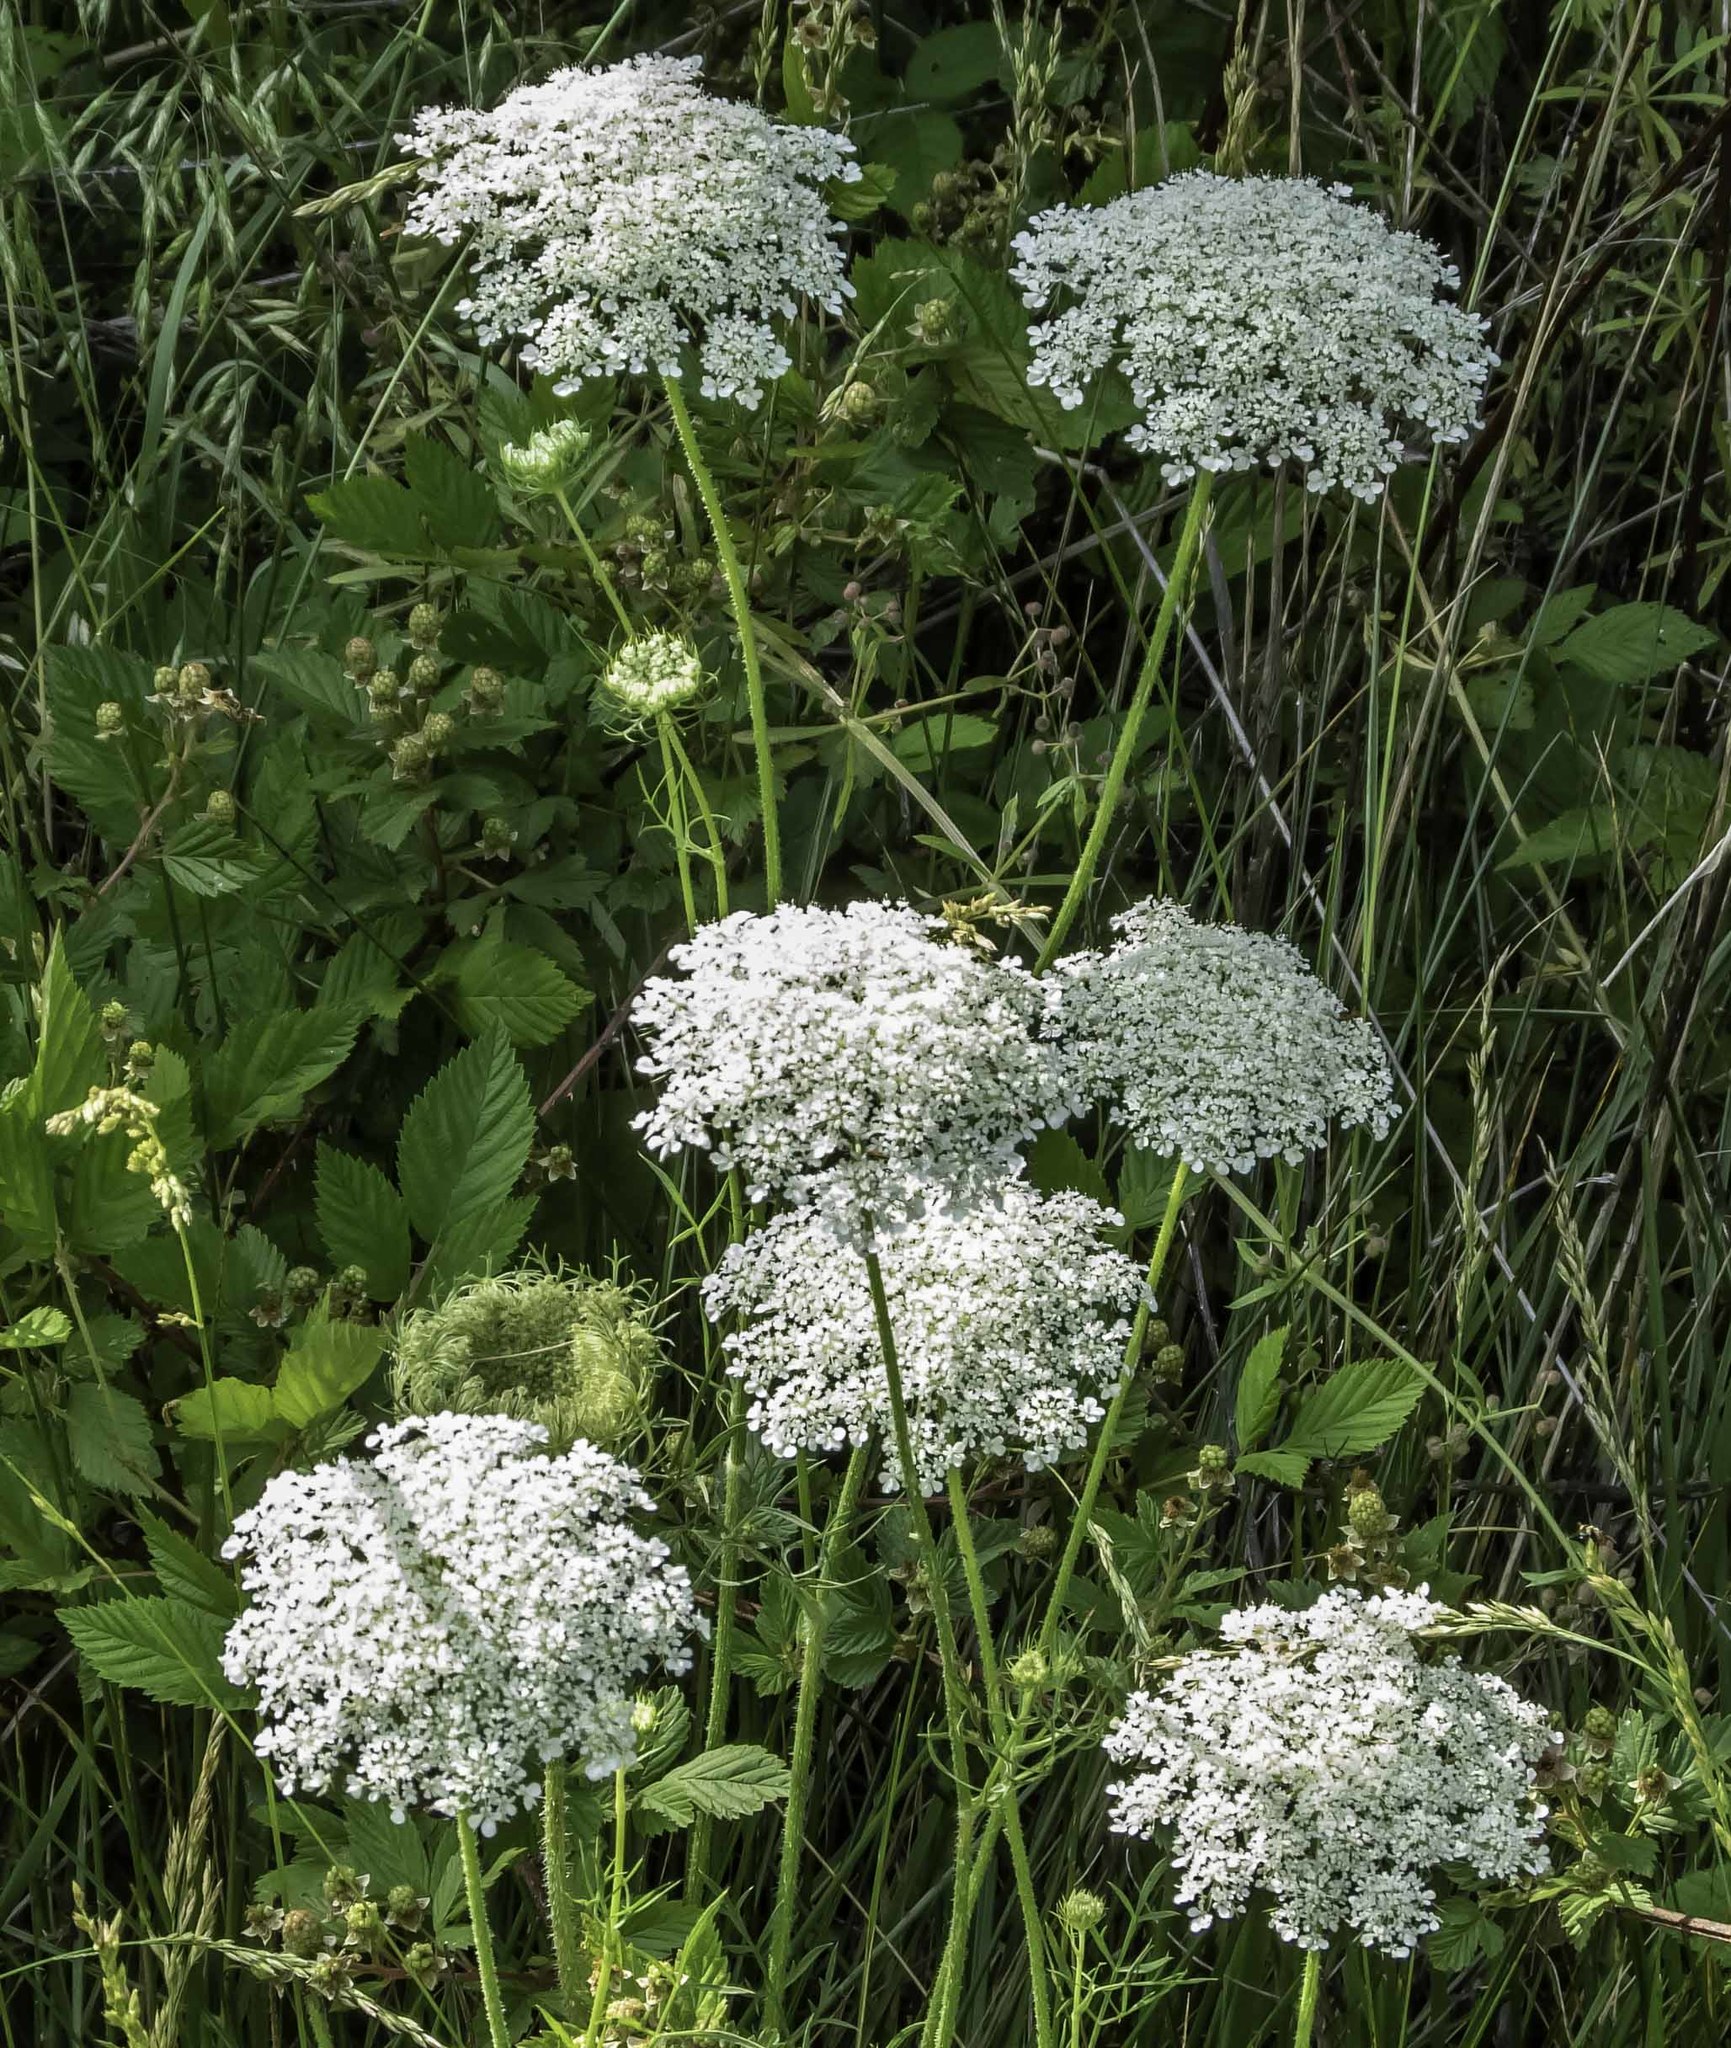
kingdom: Plantae
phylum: Tracheophyta
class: Magnoliopsida
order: Apiales
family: Apiaceae
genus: Daucus
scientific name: Daucus carota
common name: Wild carrot
